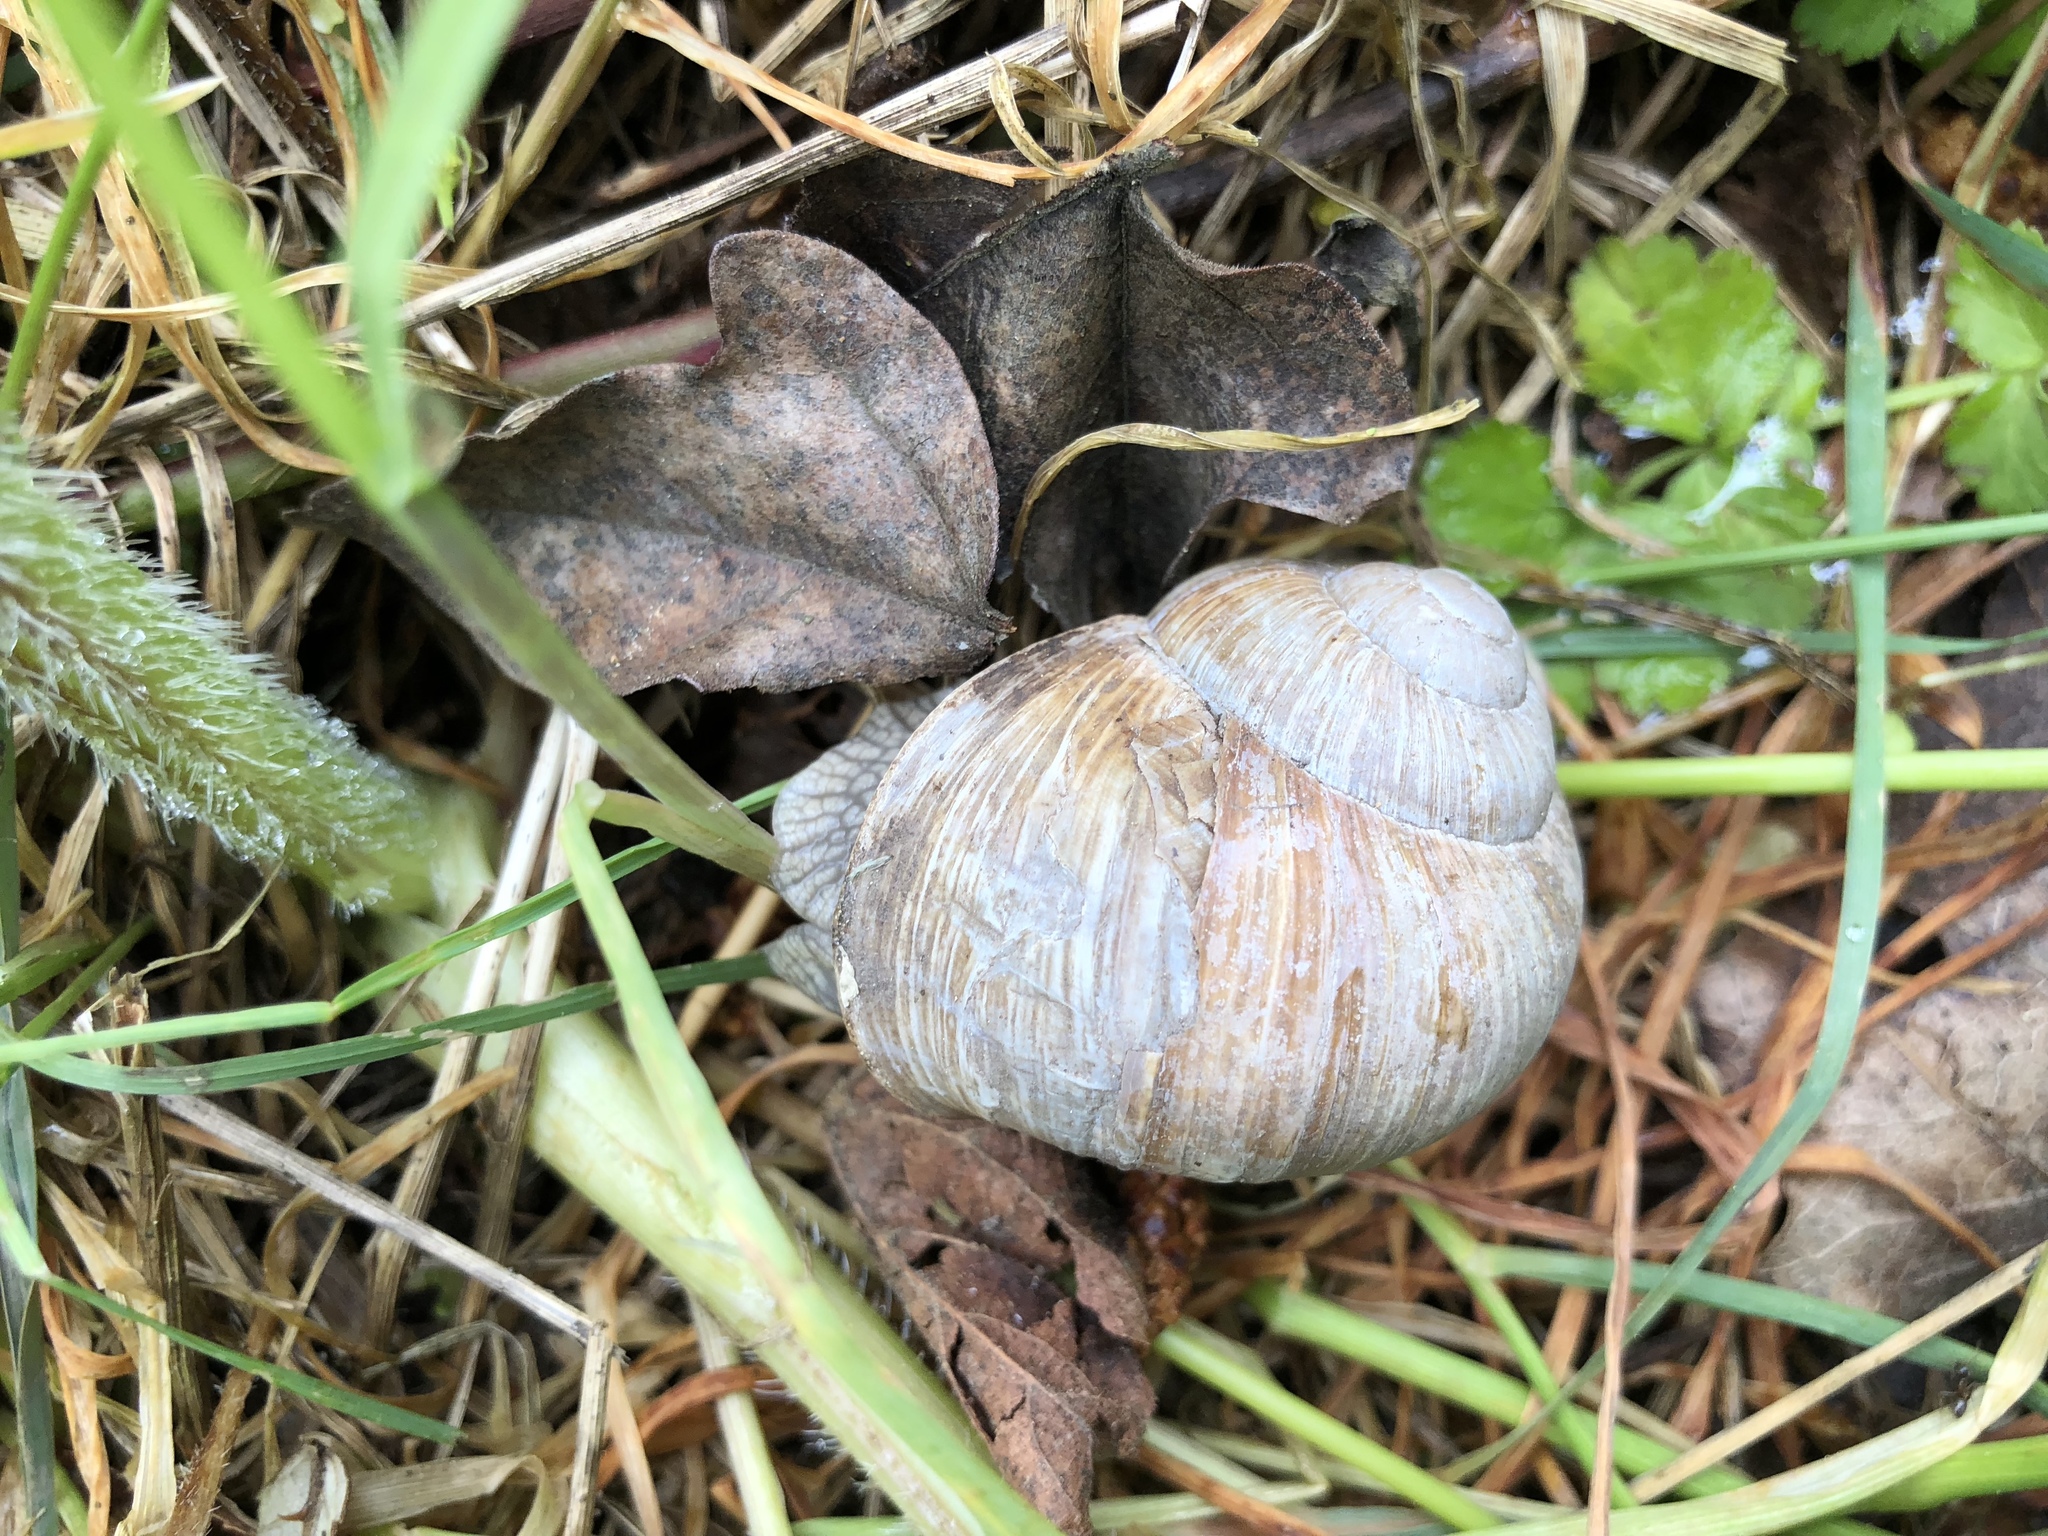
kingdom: Animalia
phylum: Mollusca
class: Gastropoda
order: Stylommatophora
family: Helicidae
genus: Helix
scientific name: Helix pomatia
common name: Roman snail
